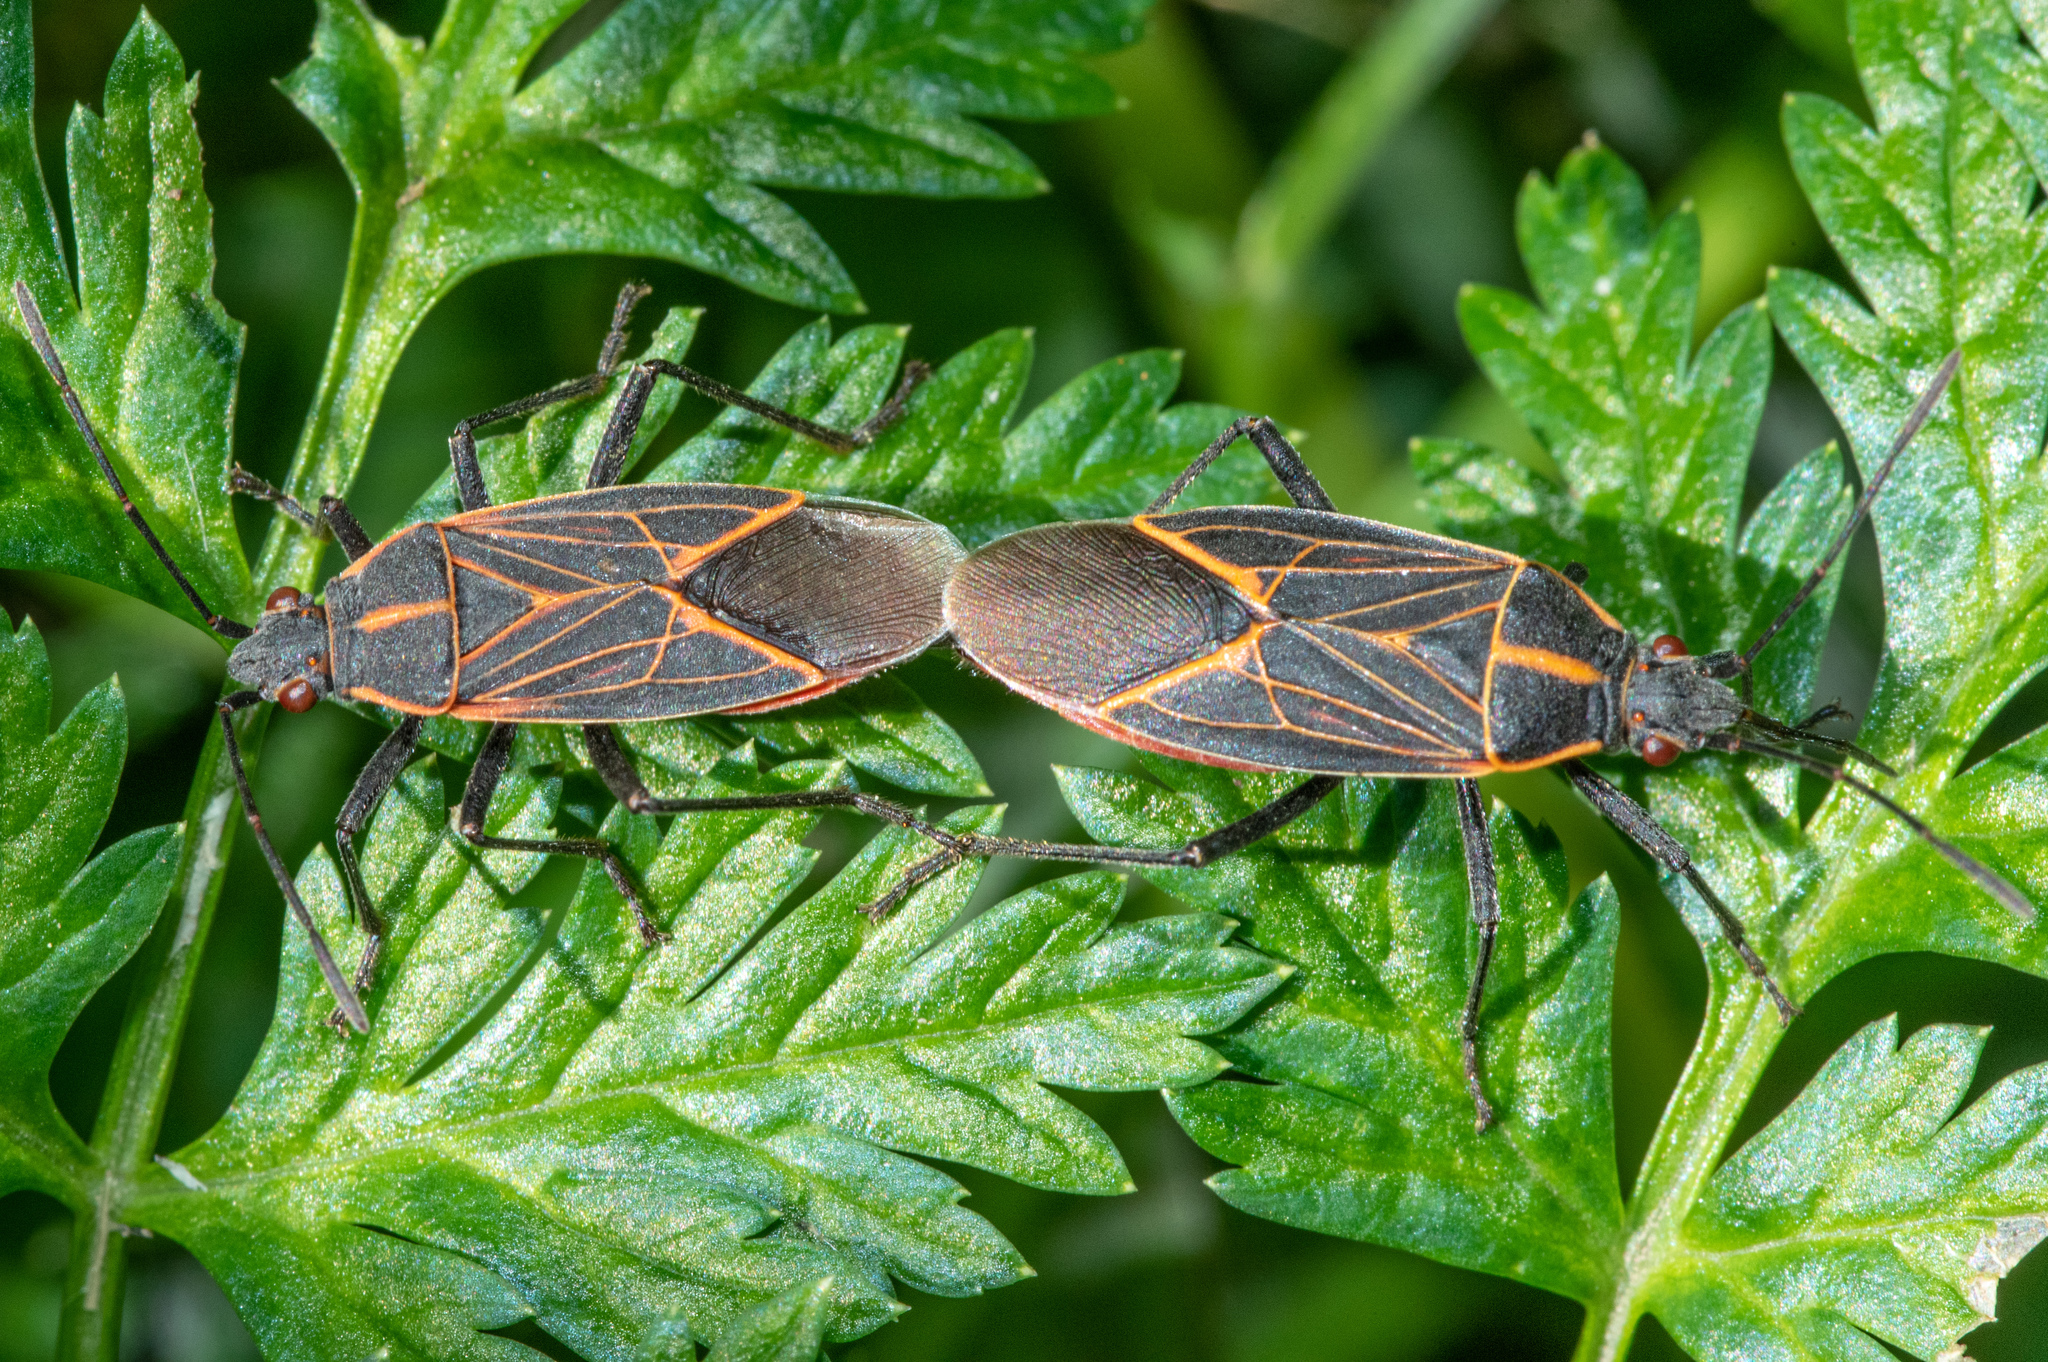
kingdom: Animalia
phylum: Arthropoda
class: Insecta
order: Hemiptera
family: Rhopalidae
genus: Boisea
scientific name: Boisea rubrolineata
